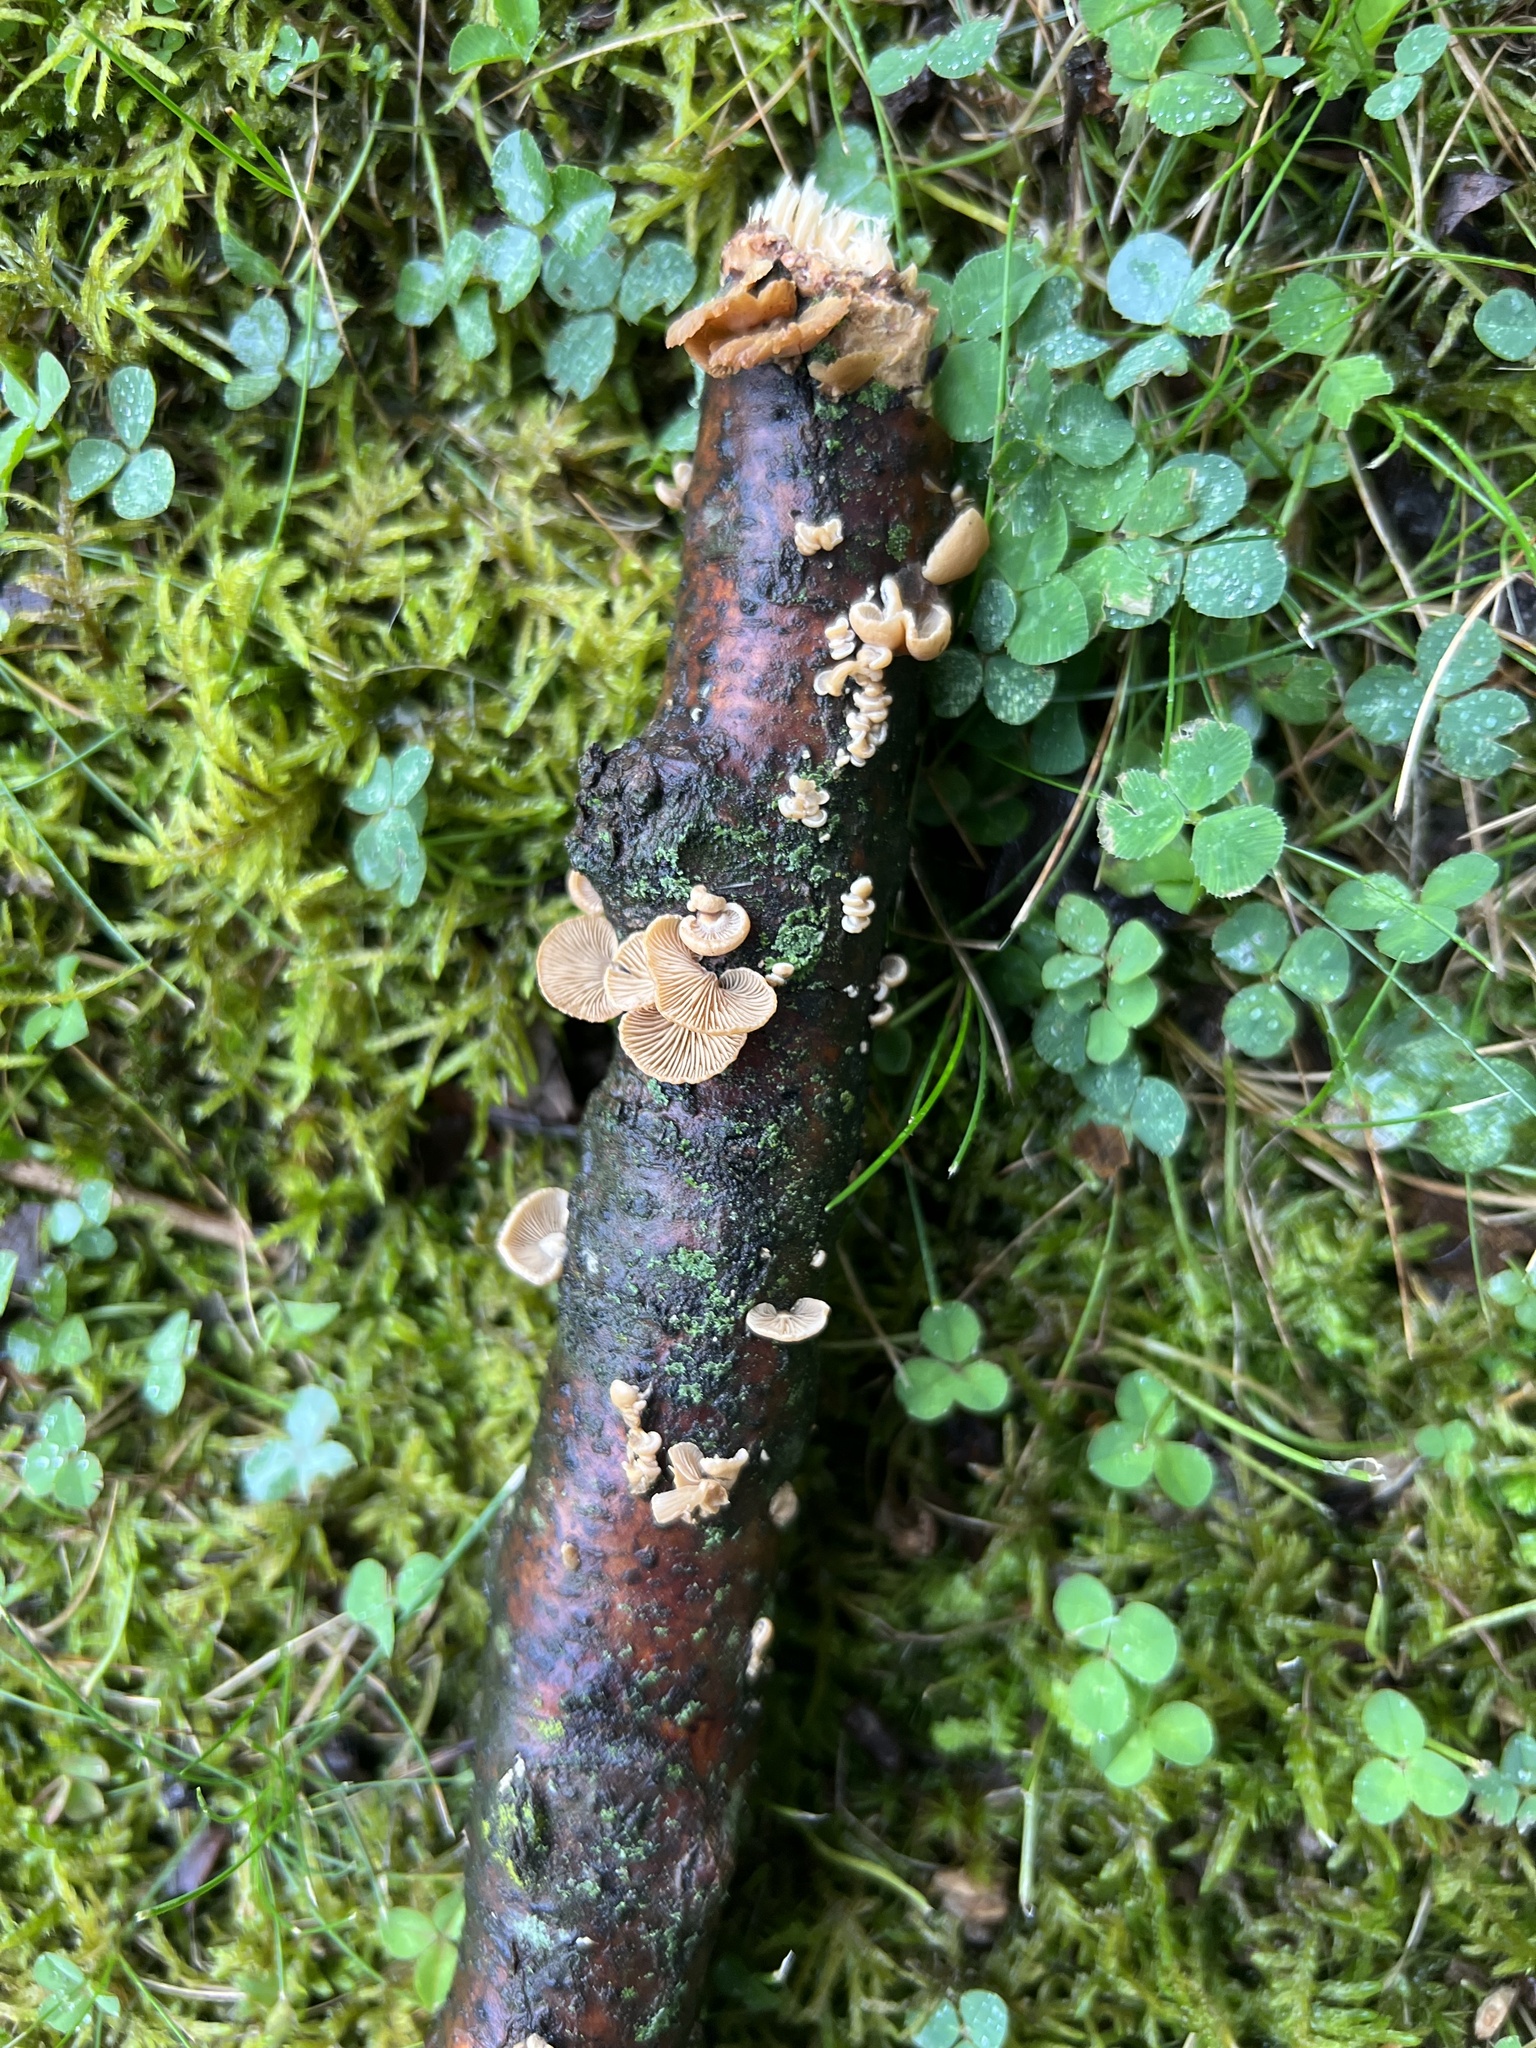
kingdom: Fungi
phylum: Basidiomycota
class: Agaricomycetes
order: Agaricales
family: Mycenaceae
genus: Panellus
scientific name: Panellus stipticus
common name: Bitter oysterling
